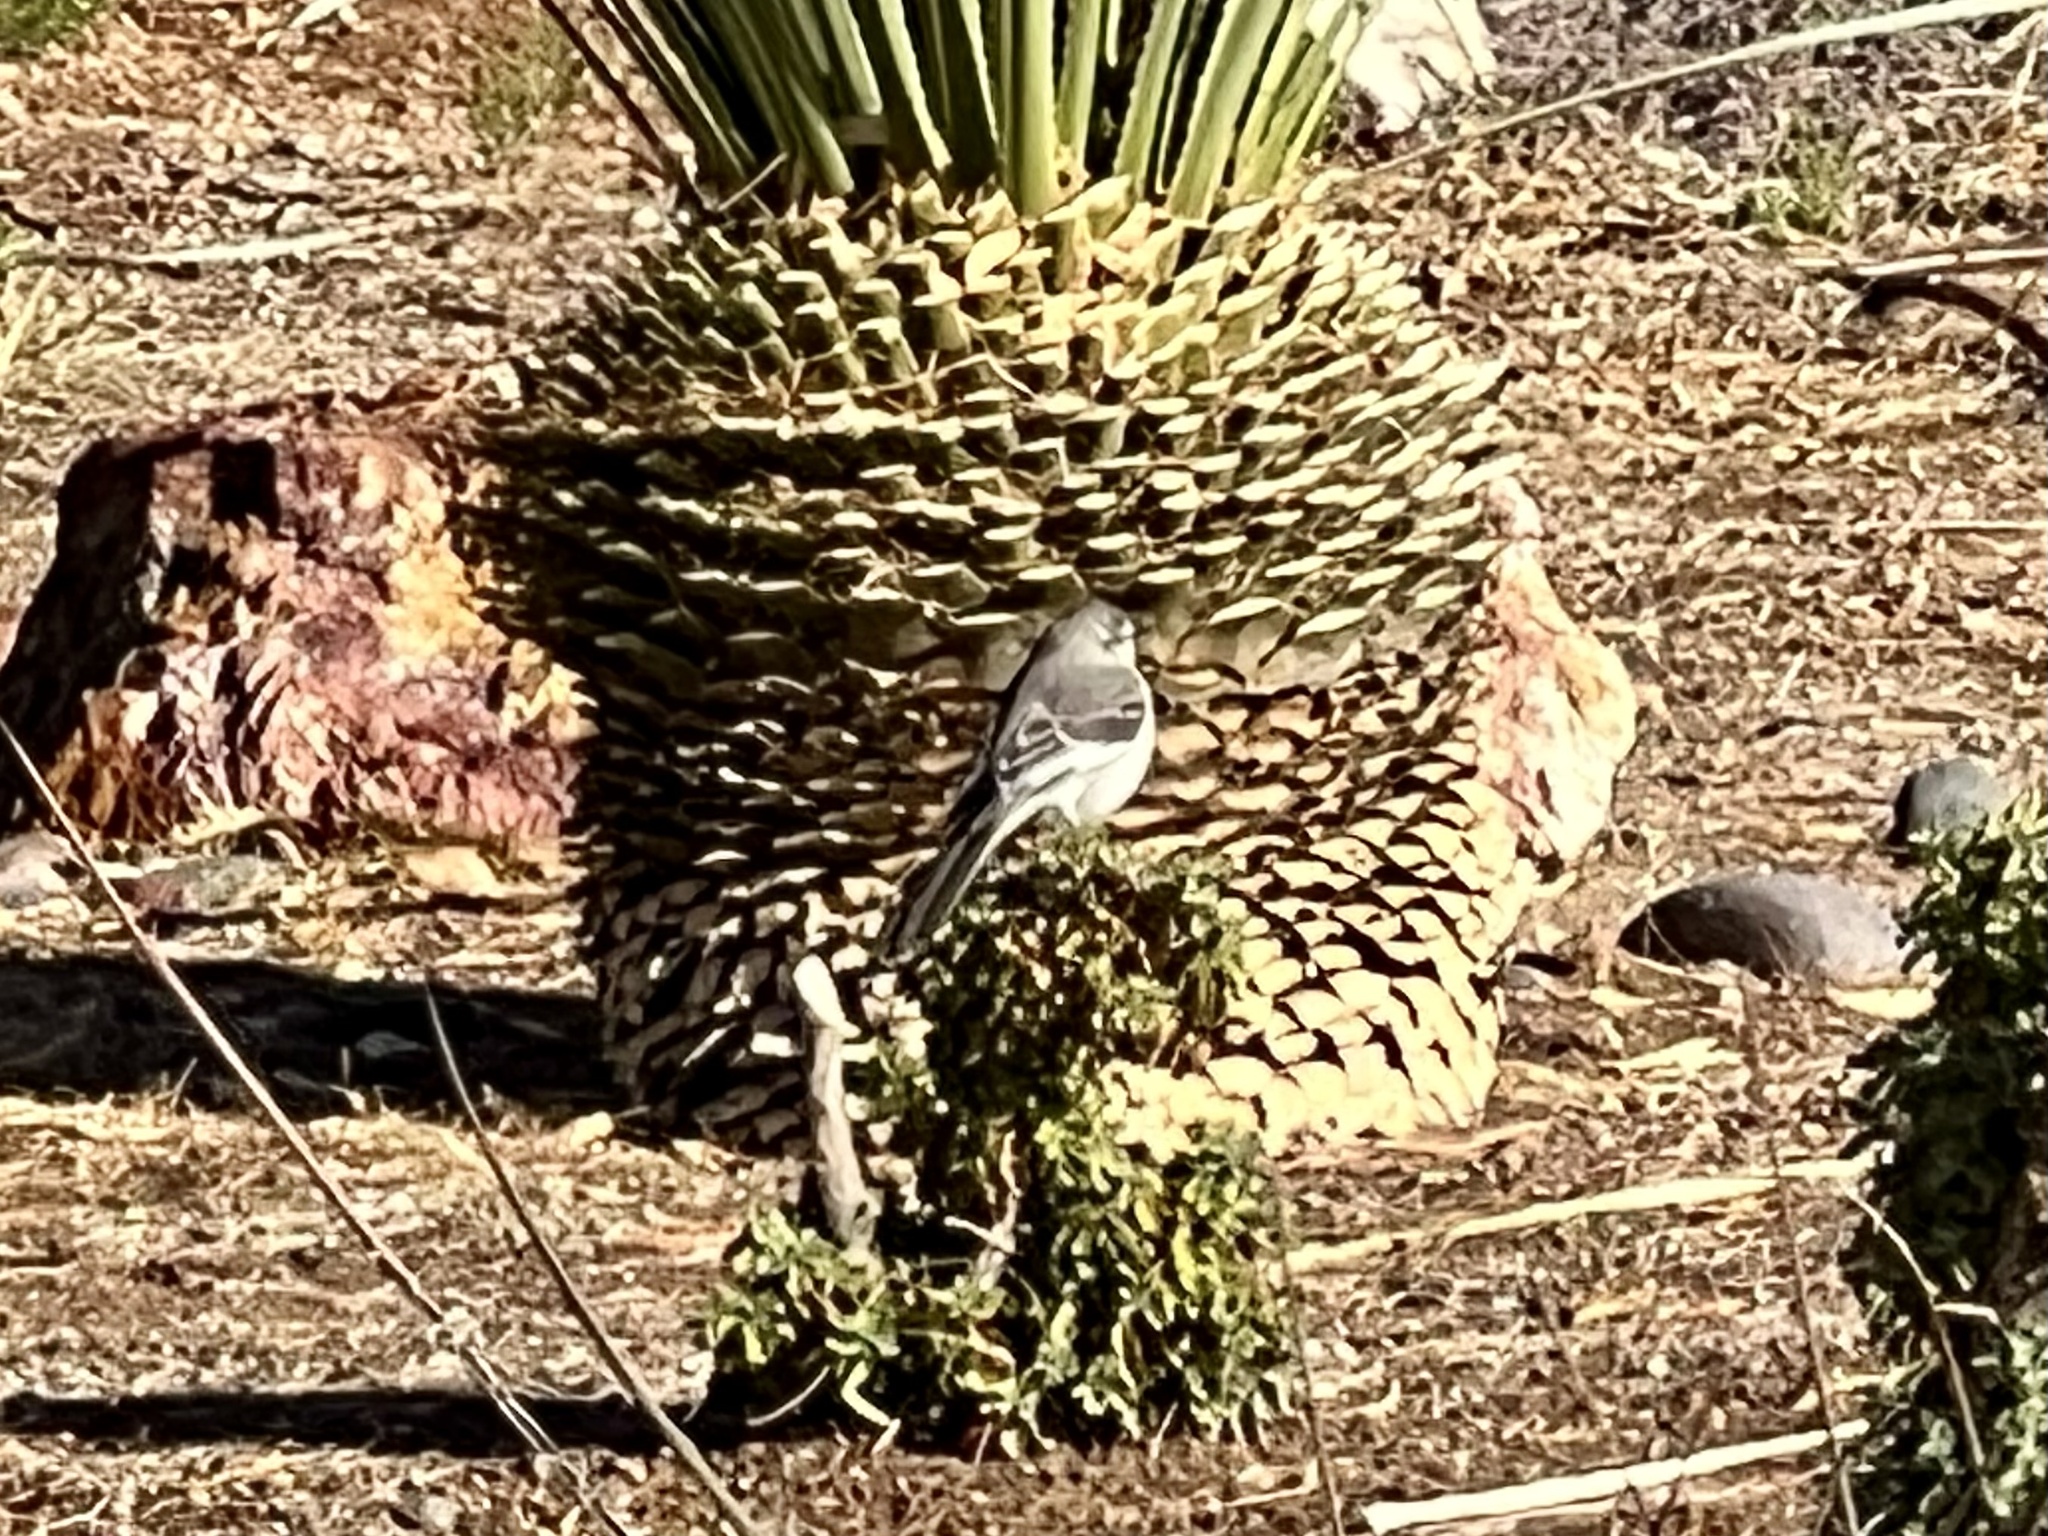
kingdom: Animalia
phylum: Chordata
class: Aves
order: Passeriformes
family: Mimidae
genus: Mimus
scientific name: Mimus polyglottos
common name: Northern mockingbird
